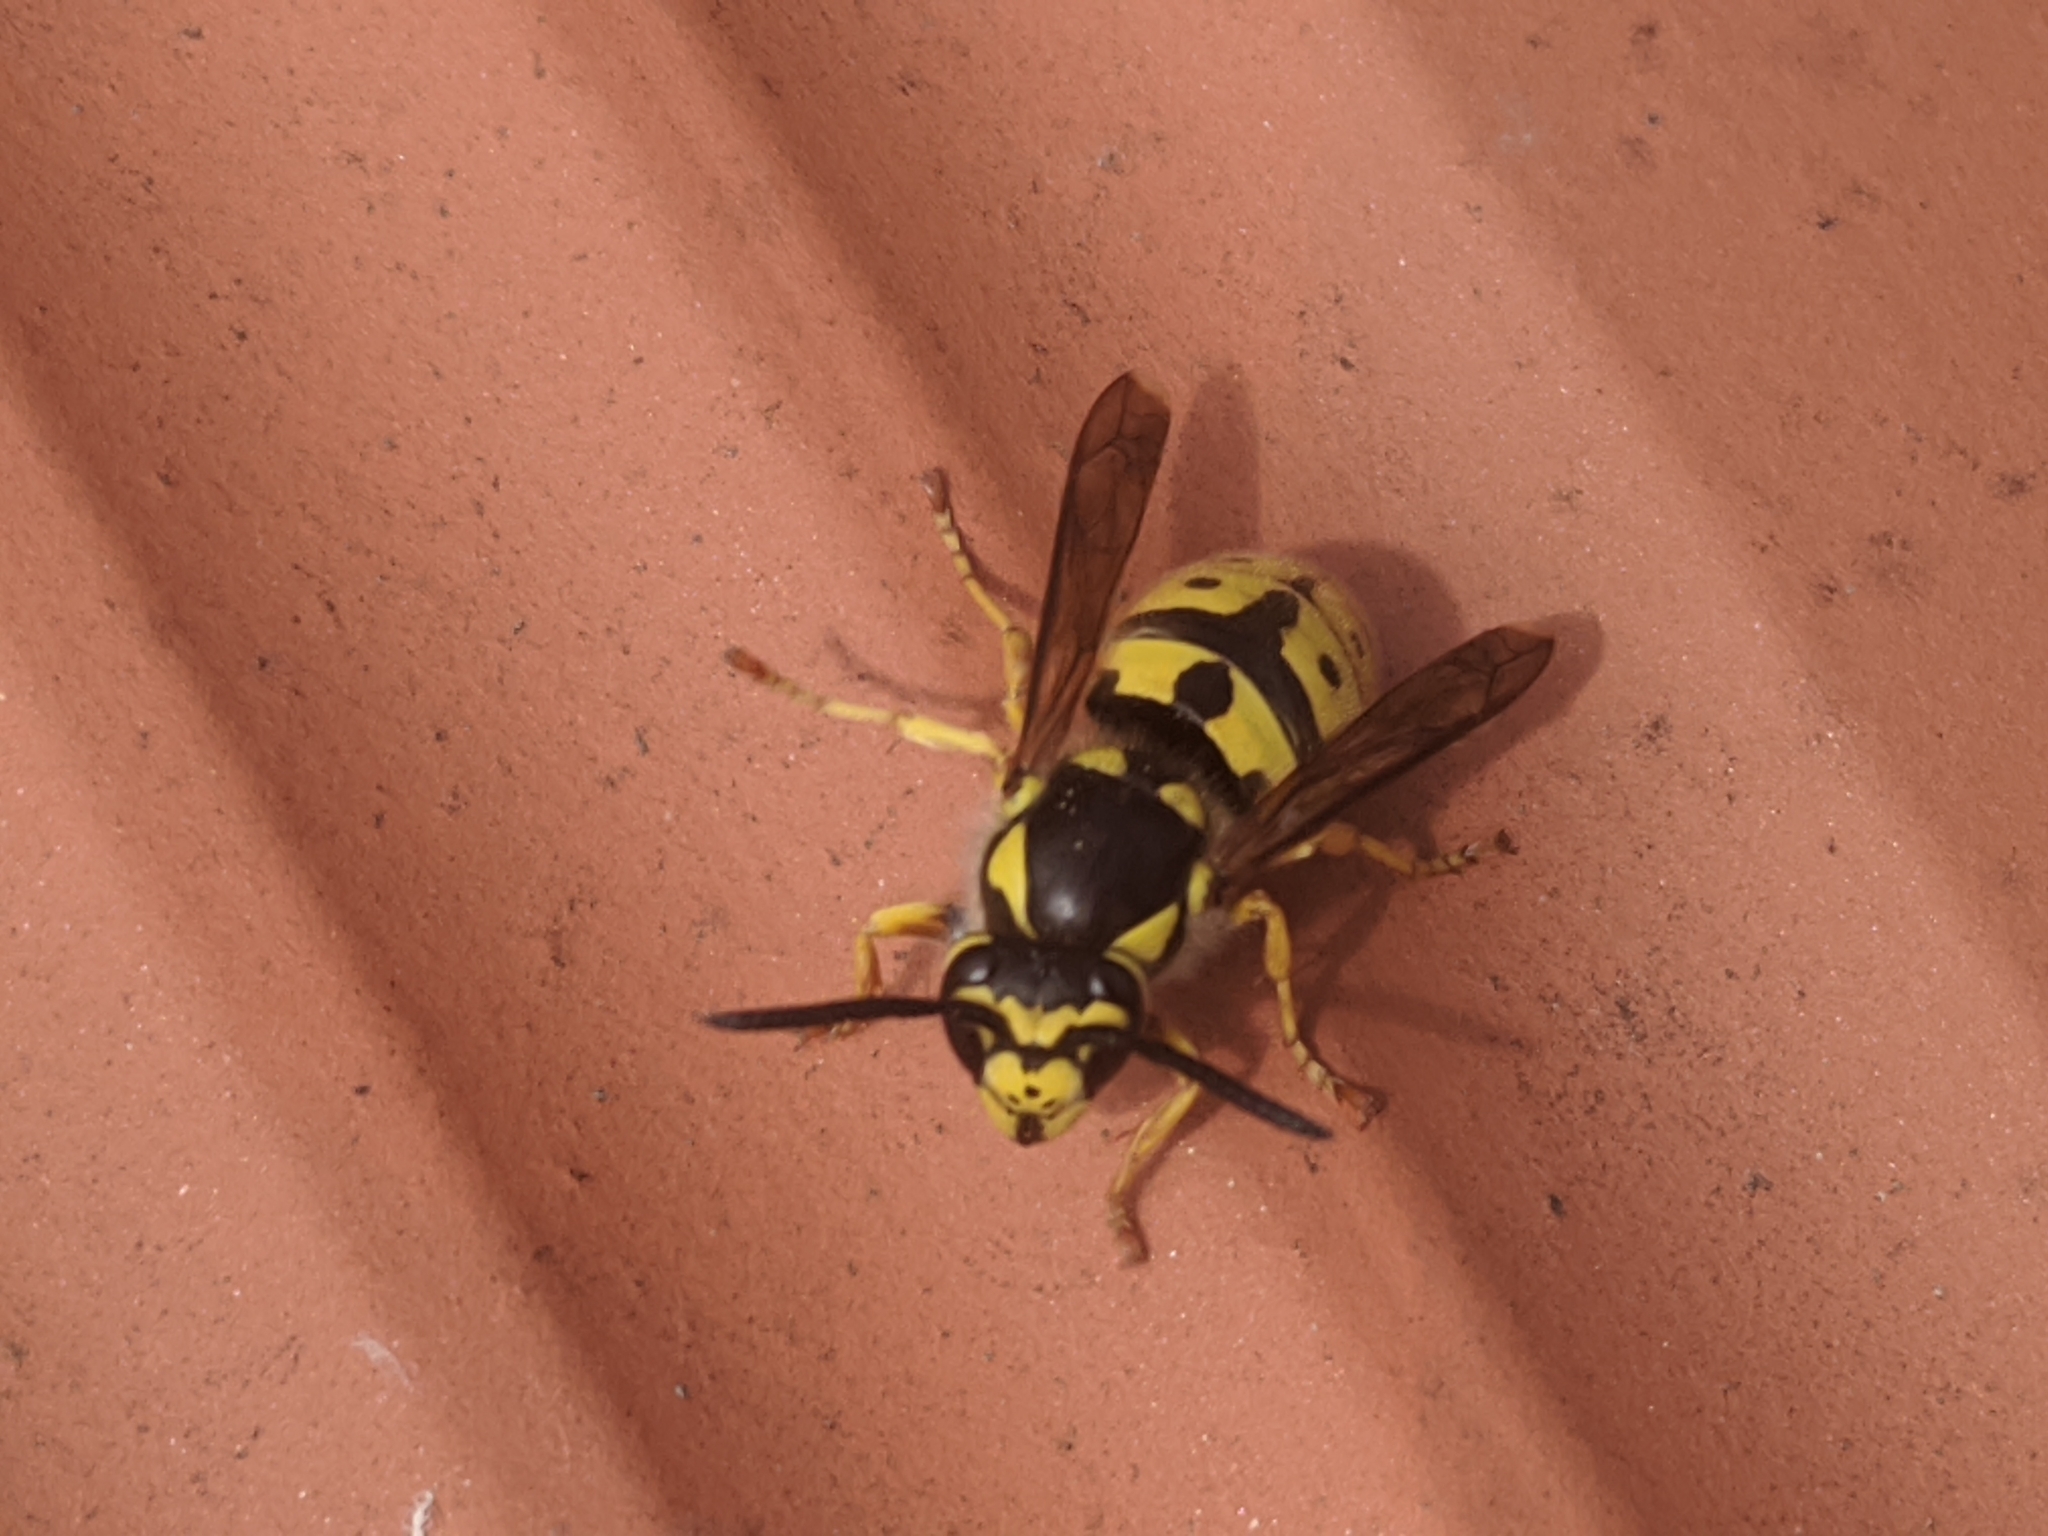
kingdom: Animalia
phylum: Arthropoda
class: Insecta
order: Hymenoptera
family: Vespidae
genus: Vespula
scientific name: Vespula germanica
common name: German wasp
